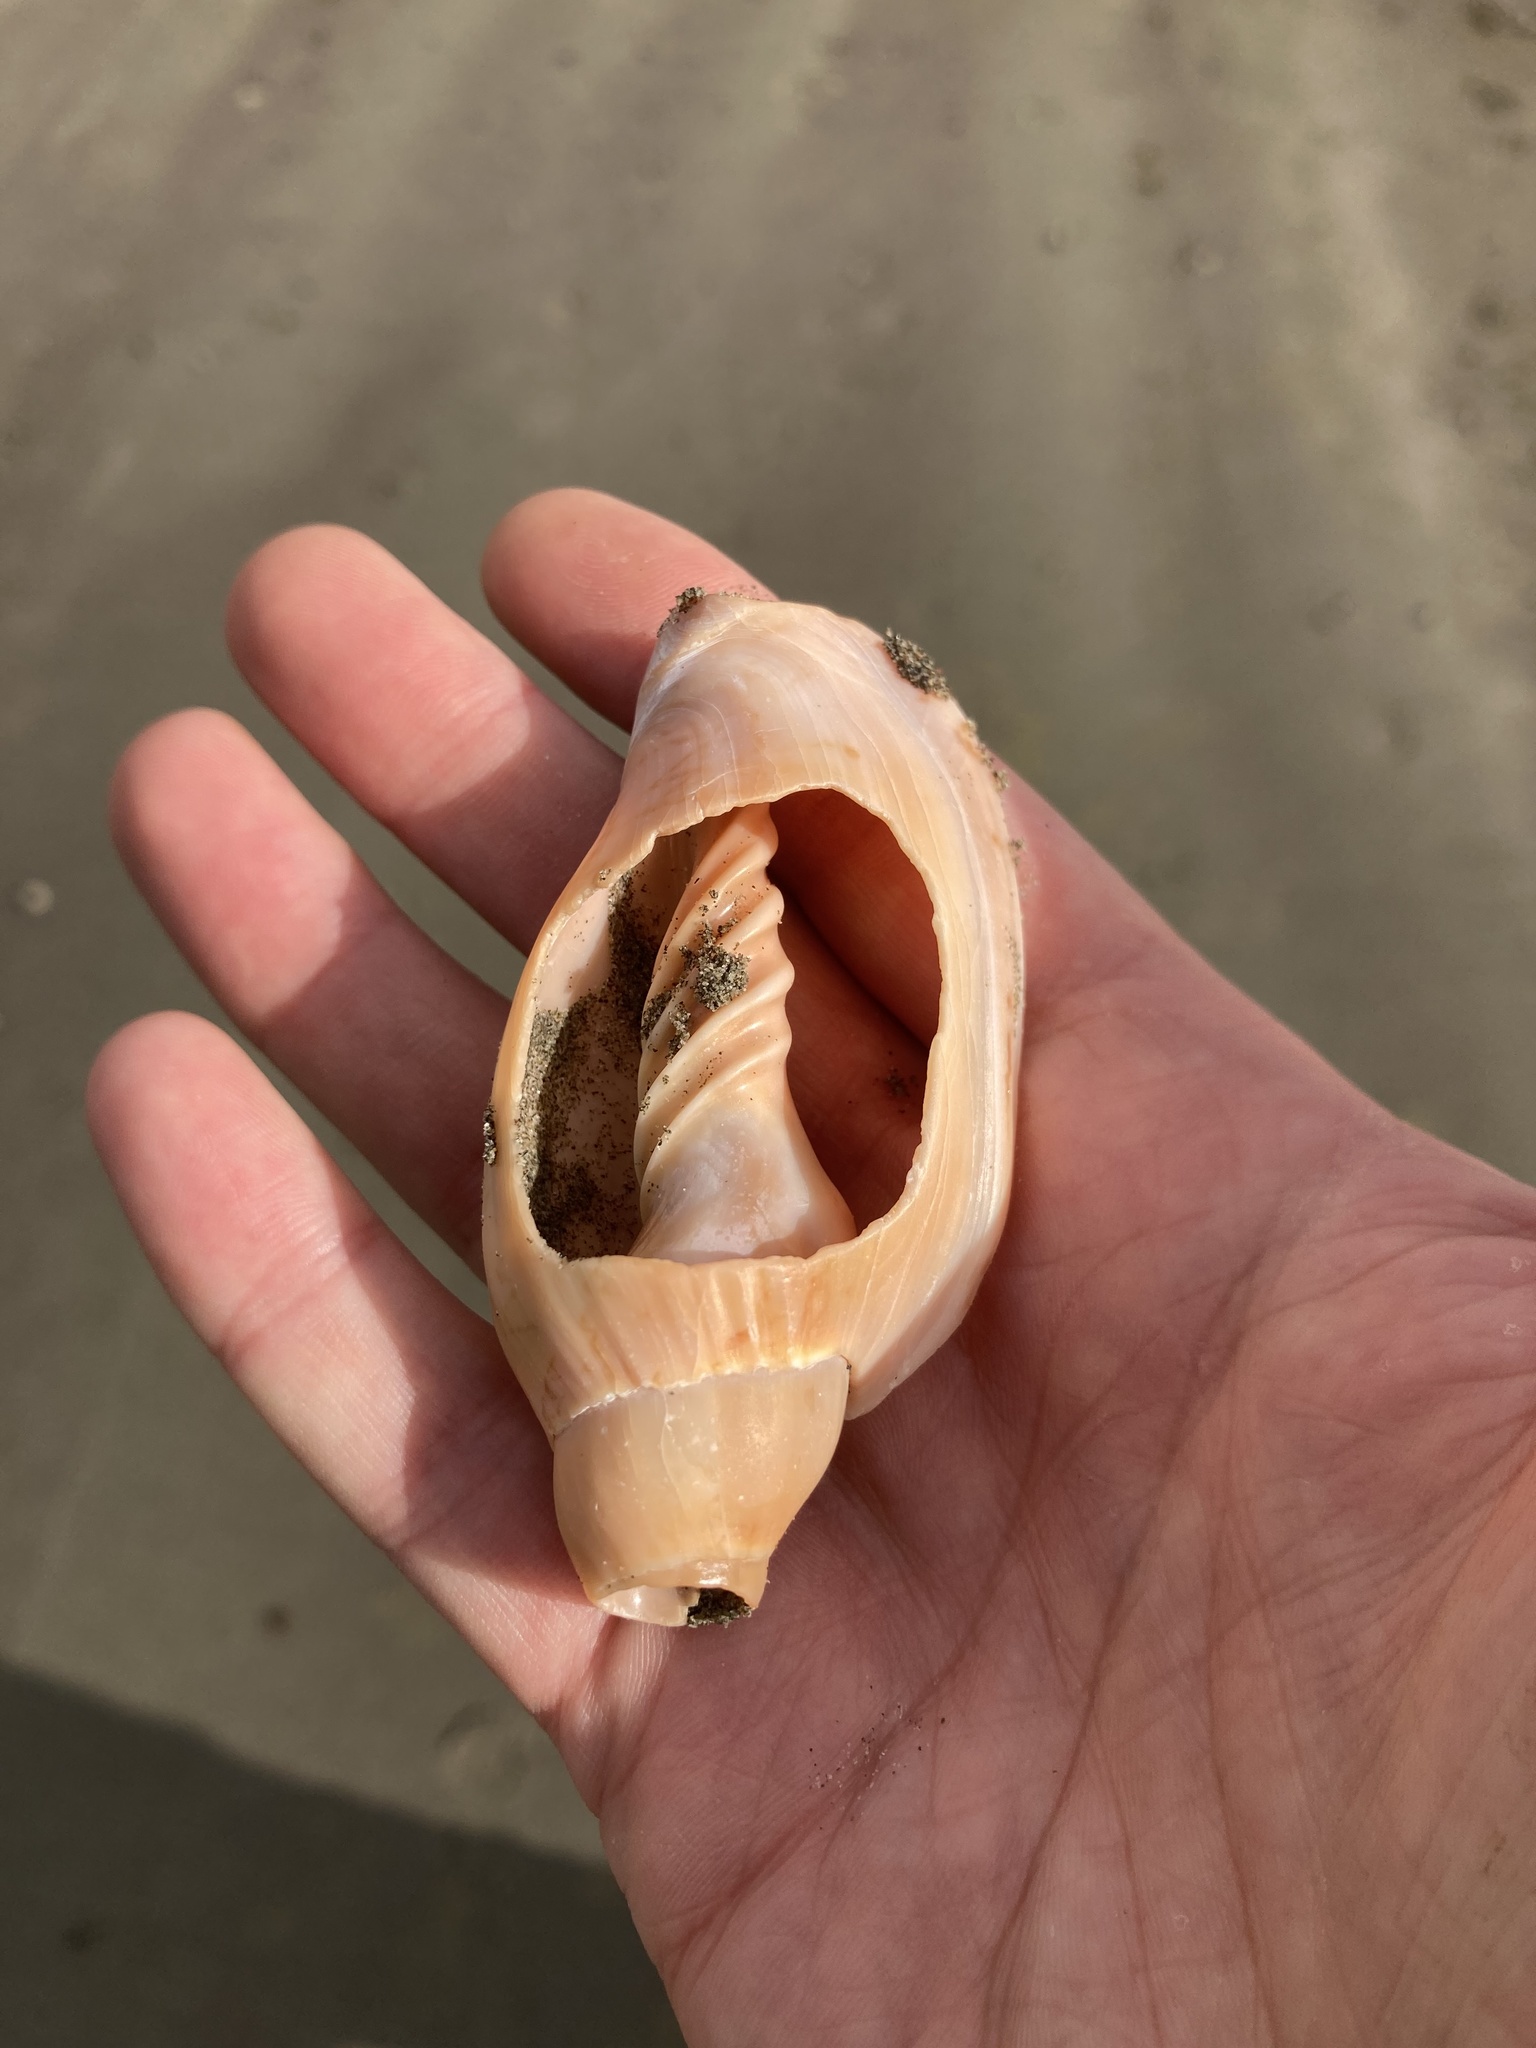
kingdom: Animalia
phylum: Mollusca
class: Gastropoda
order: Neogastropoda
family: Volutidae
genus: Alcithoe
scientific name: Alcithoe arabica
